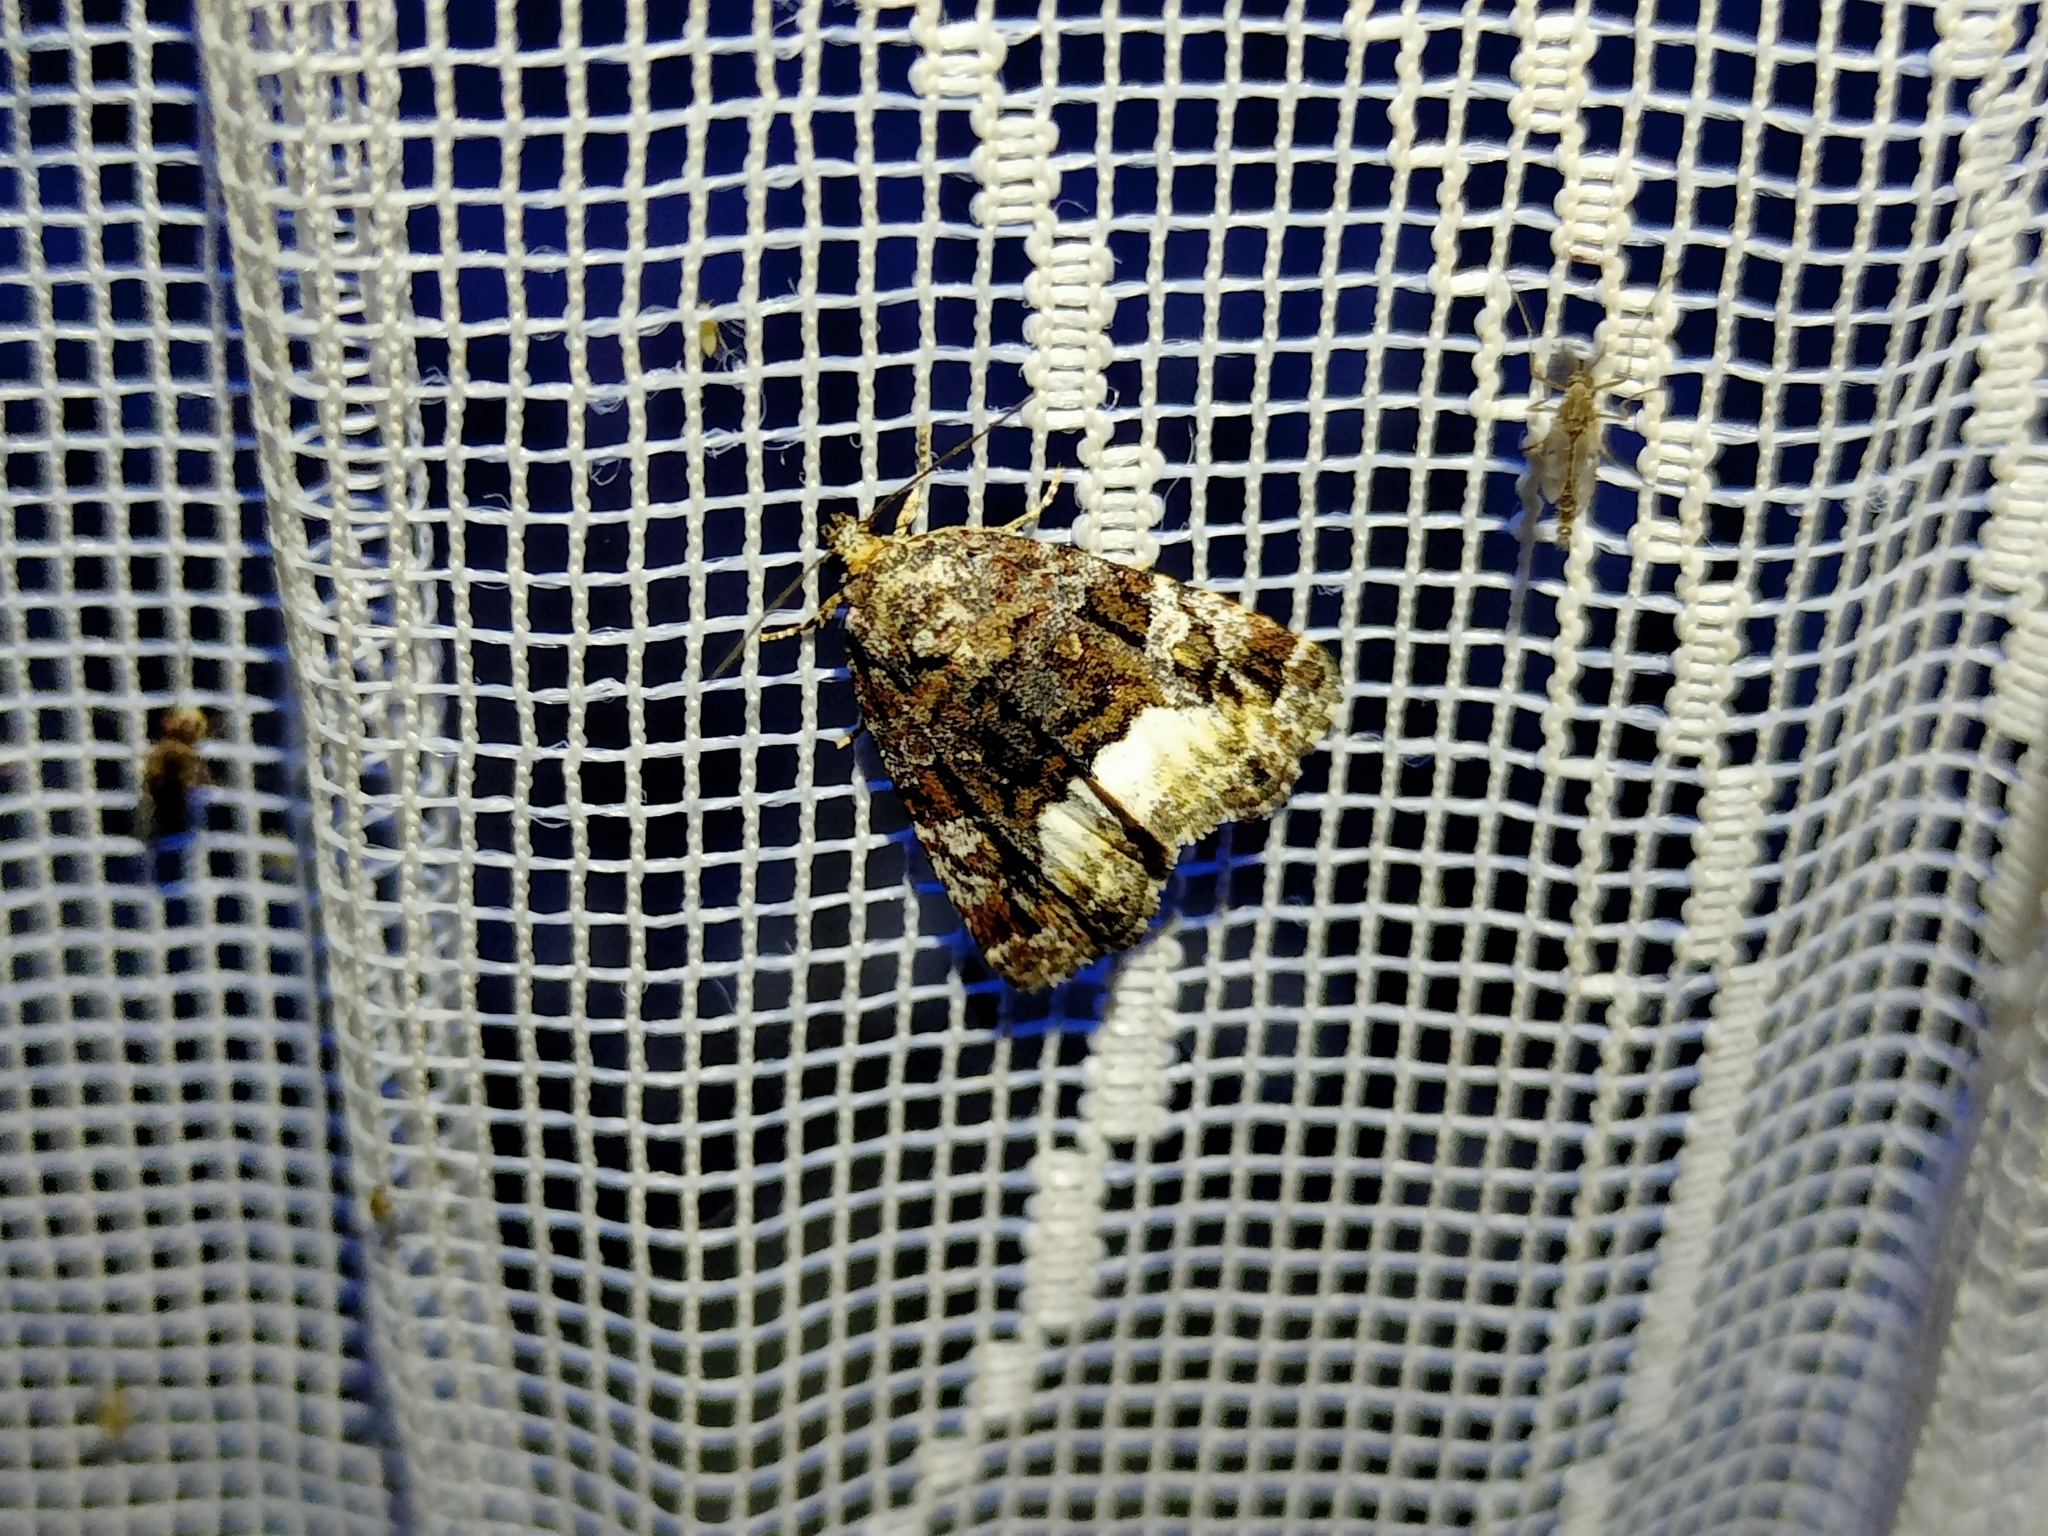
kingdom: Animalia
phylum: Arthropoda
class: Insecta
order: Lepidoptera
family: Noctuidae
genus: Deltote
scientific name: Deltote pygarga
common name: Marbled white spot
